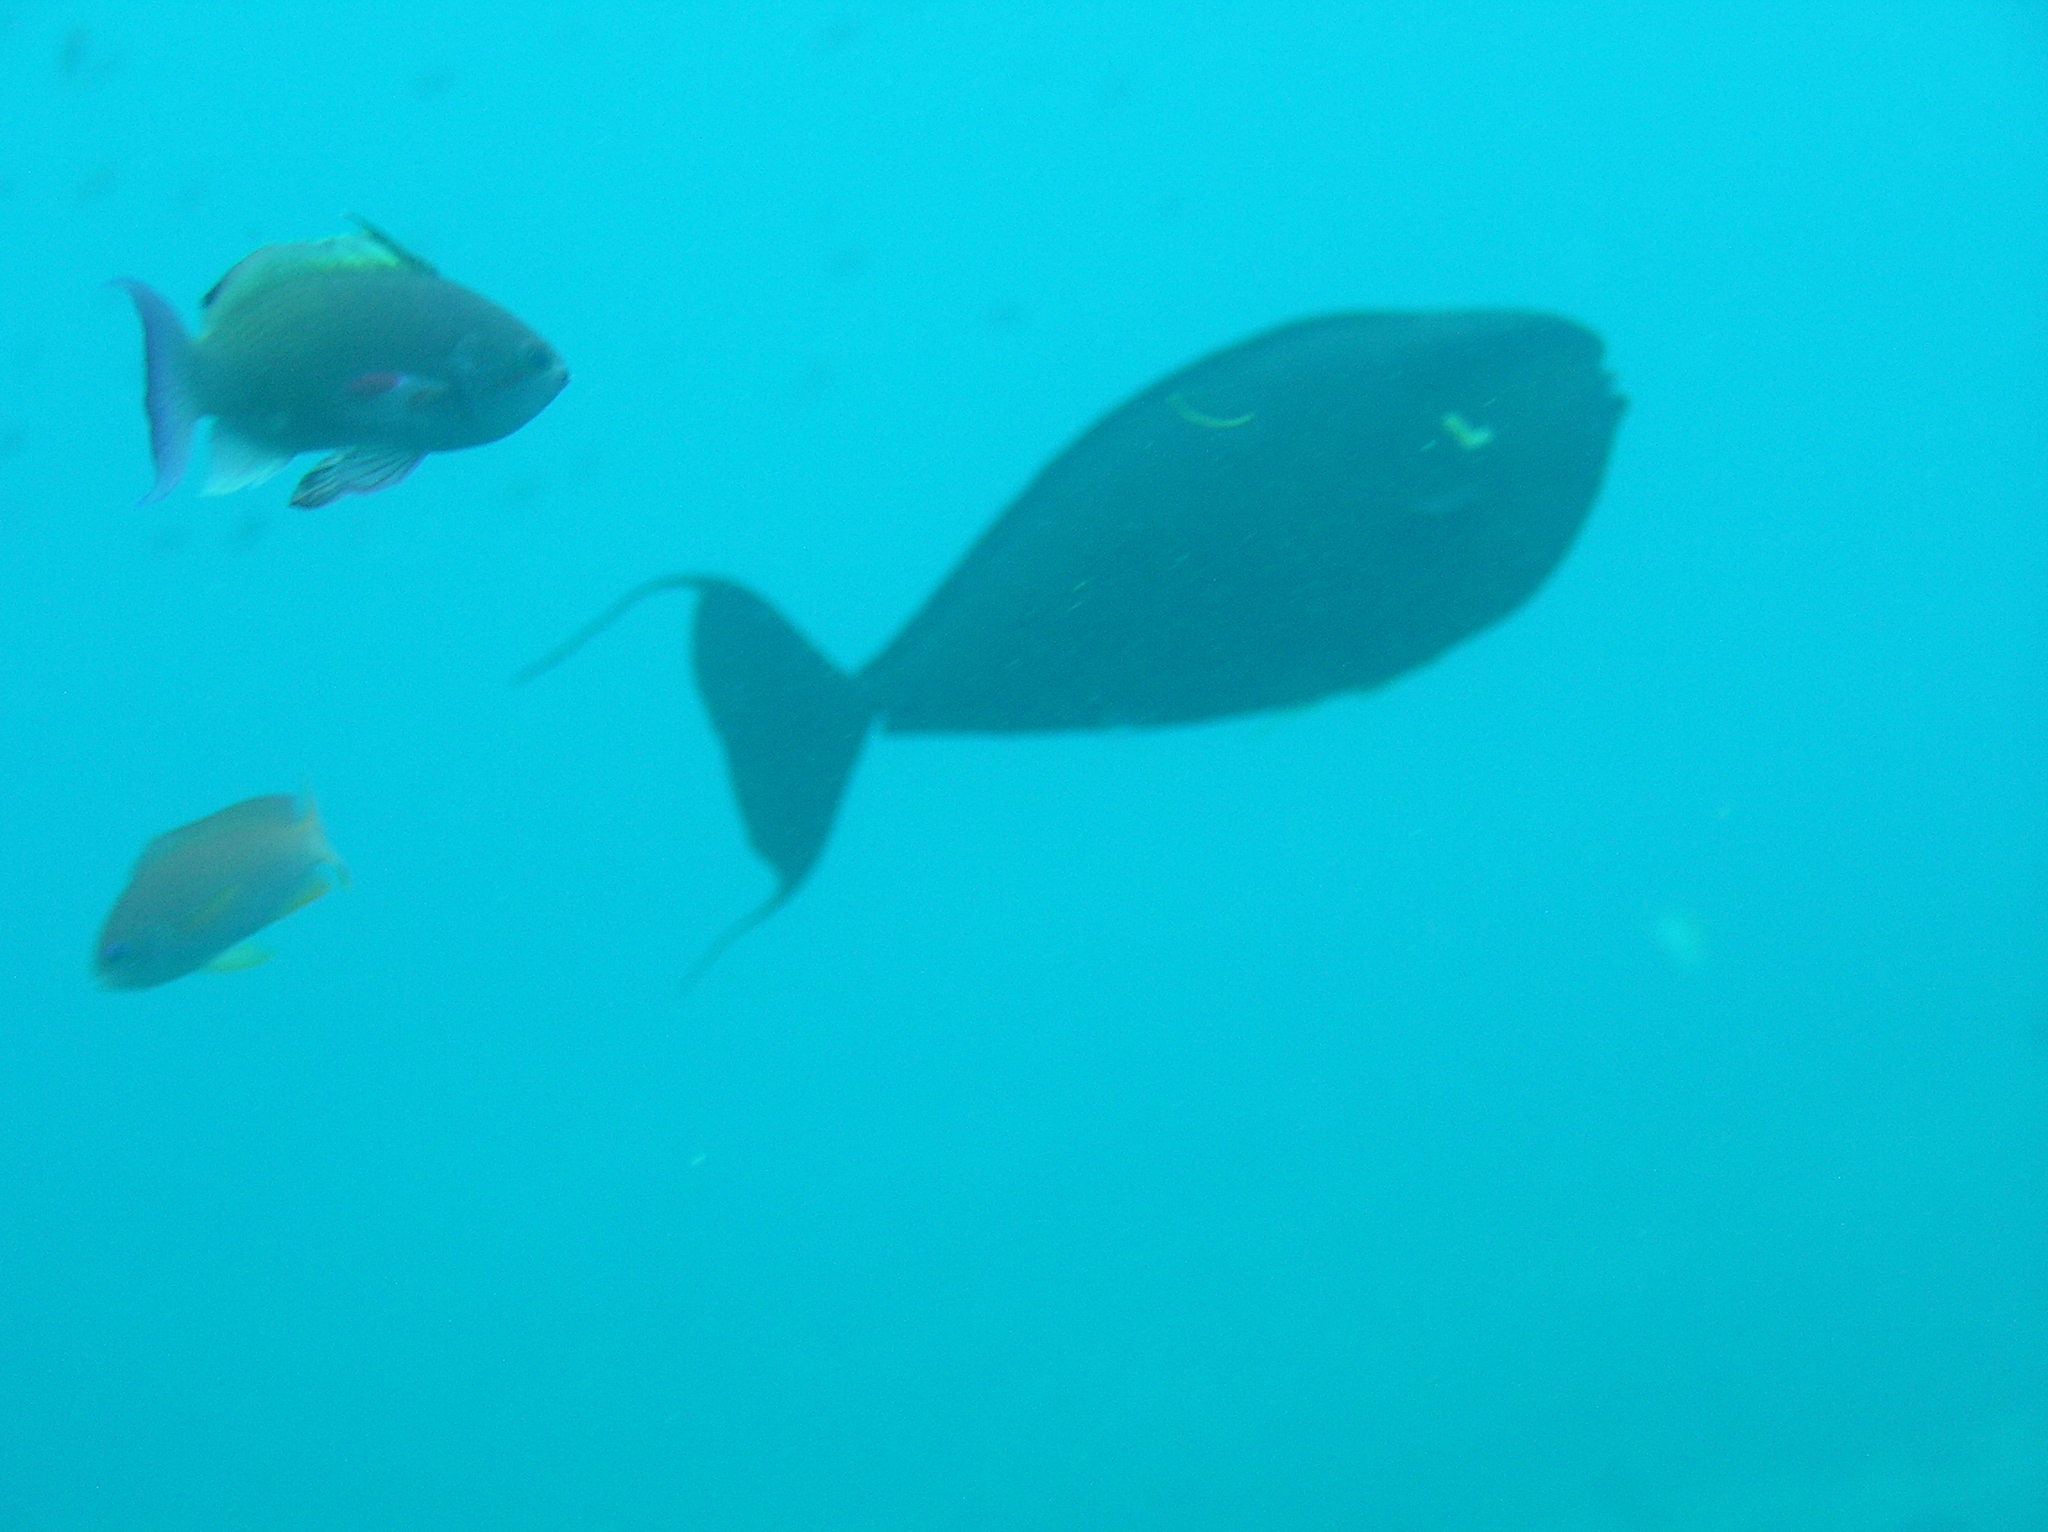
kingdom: Animalia
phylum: Chordata
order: Perciformes
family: Acanthuridae
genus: Naso
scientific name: Naso vlamingii
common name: Big-nose unicorn
